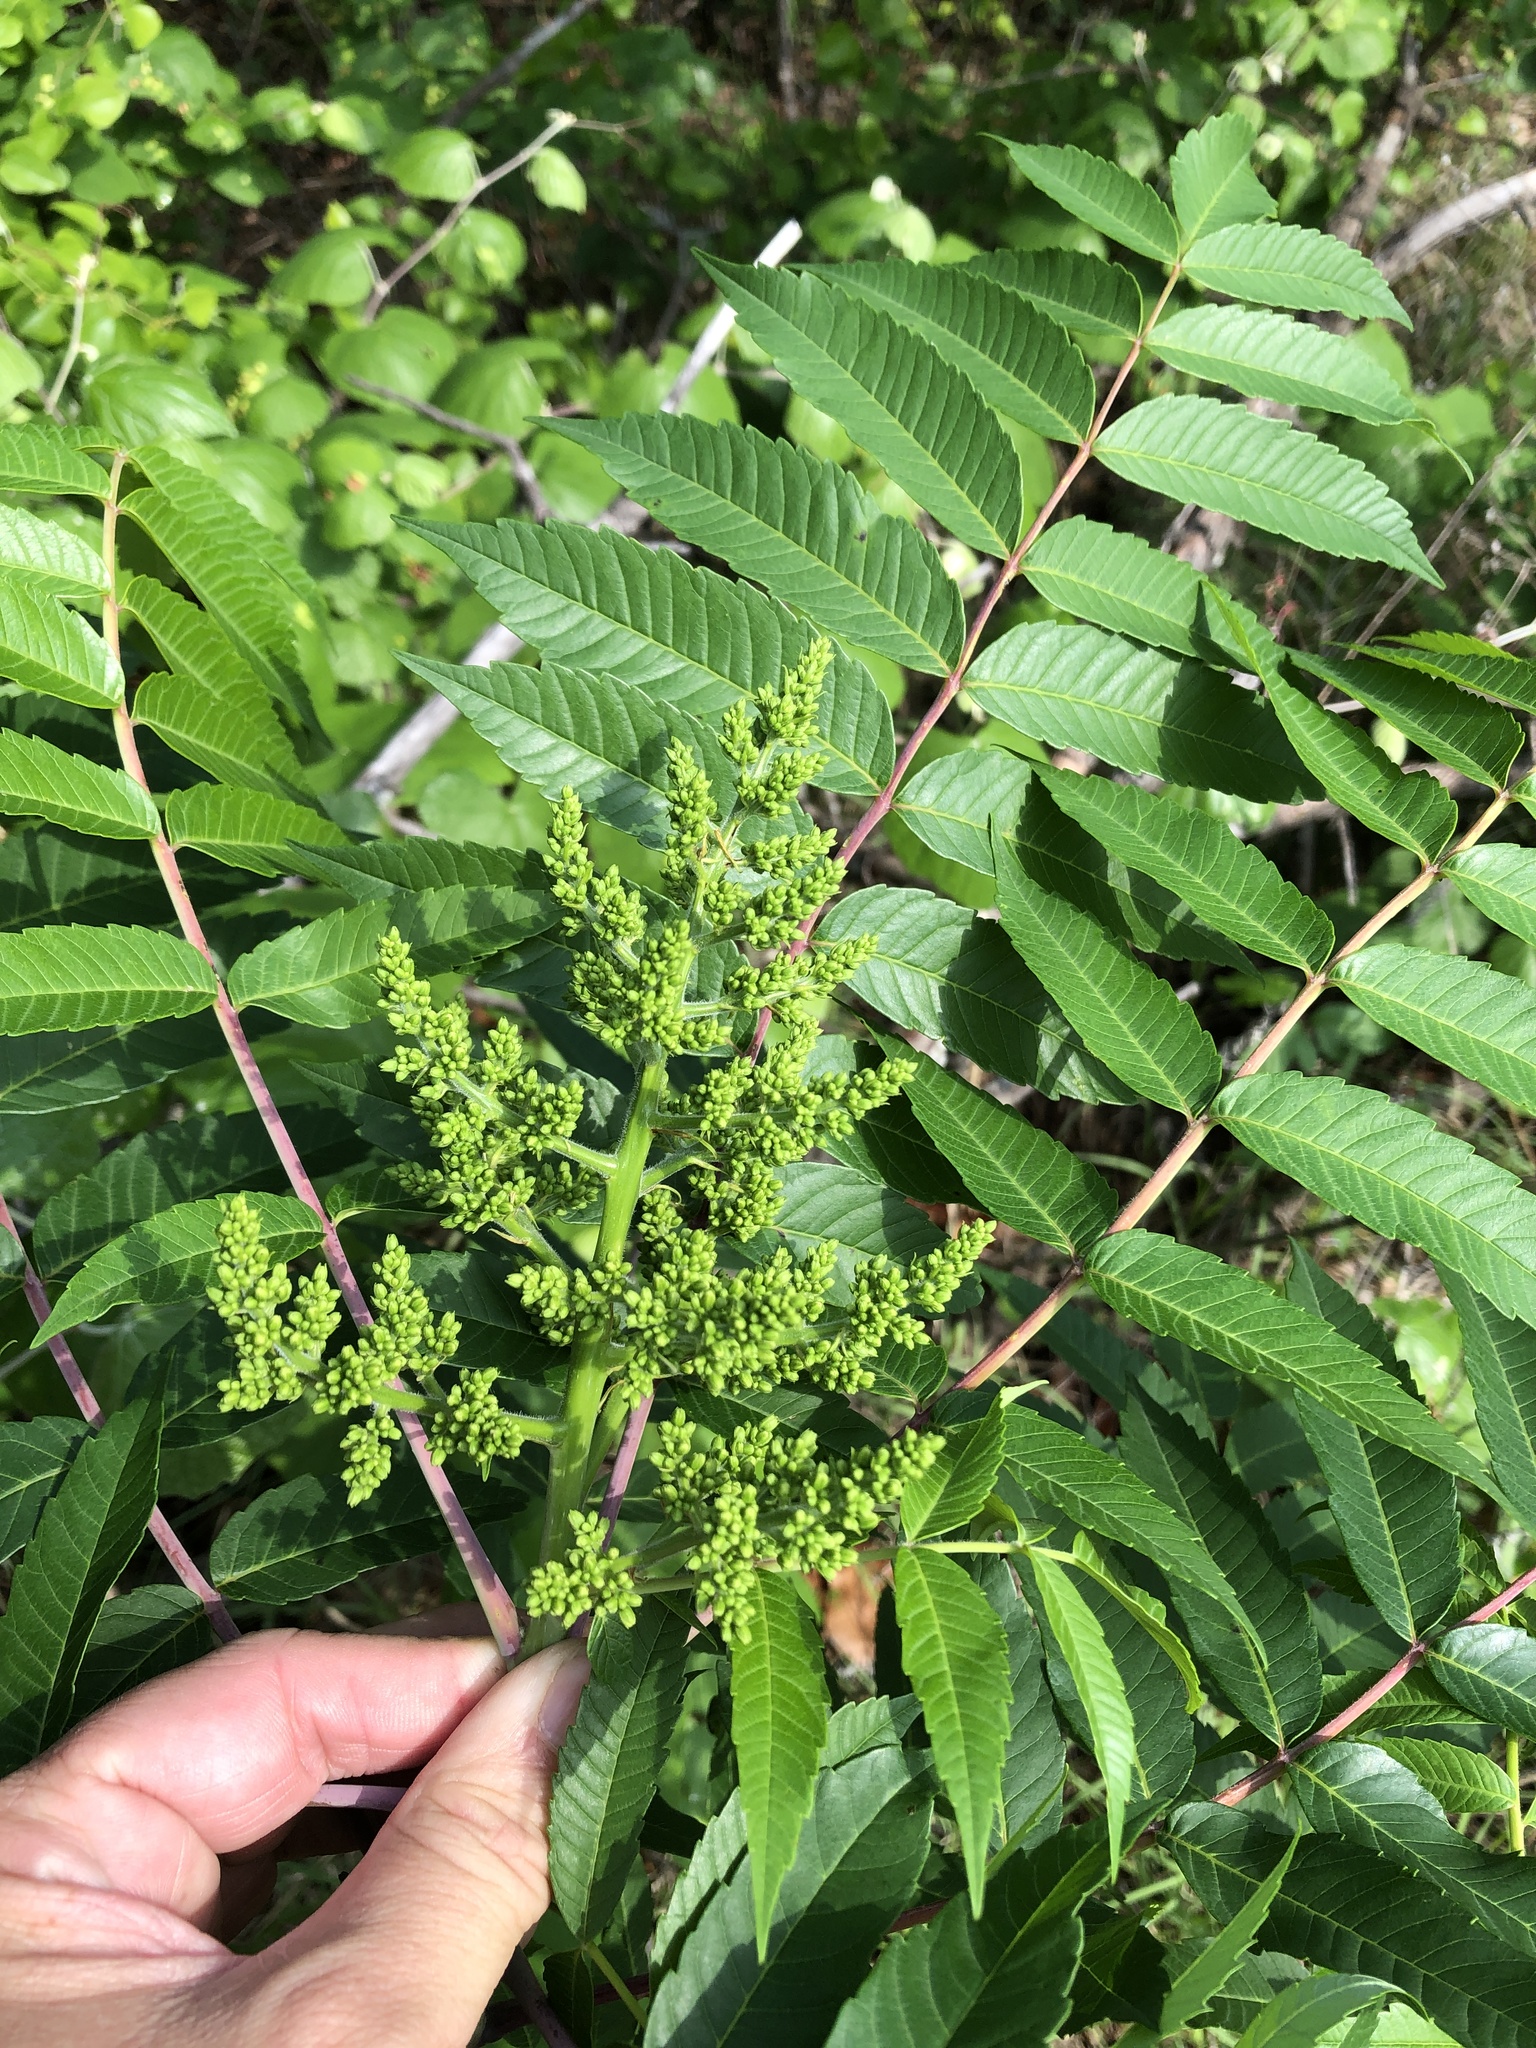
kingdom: Plantae
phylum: Tracheophyta
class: Magnoliopsida
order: Sapindales
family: Anacardiaceae
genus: Rhus
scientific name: Rhus glabra
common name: Scarlet sumac
